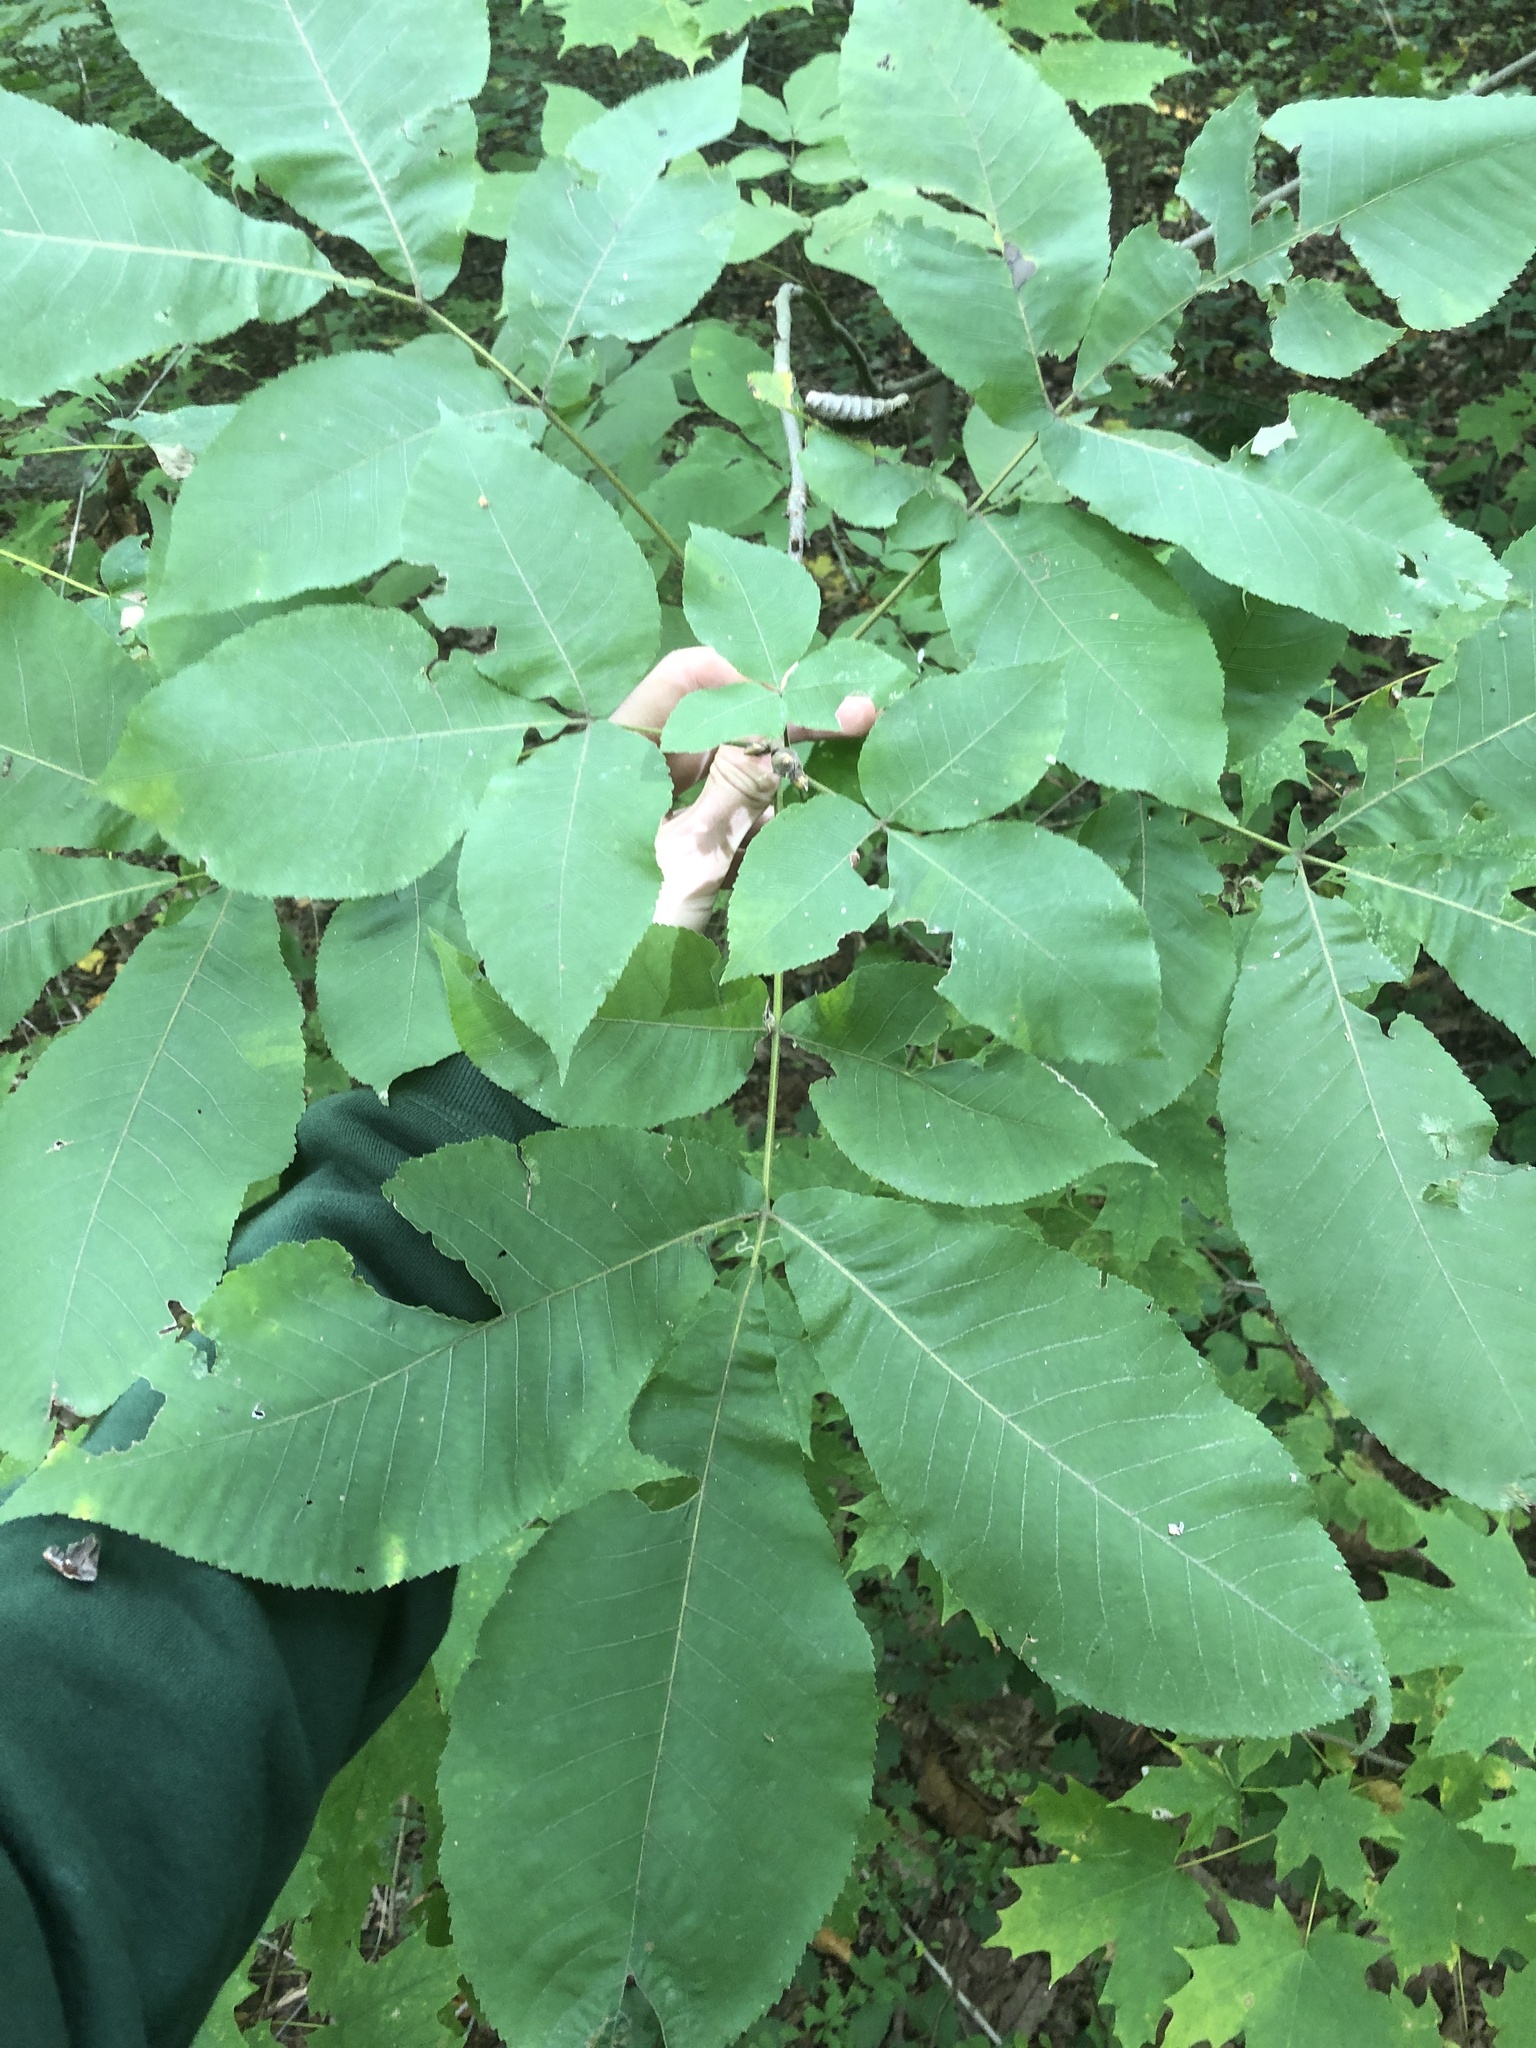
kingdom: Plantae
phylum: Tracheophyta
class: Magnoliopsida
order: Fagales
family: Juglandaceae
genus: Carya
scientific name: Carya alba
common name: Mockernut hickory
